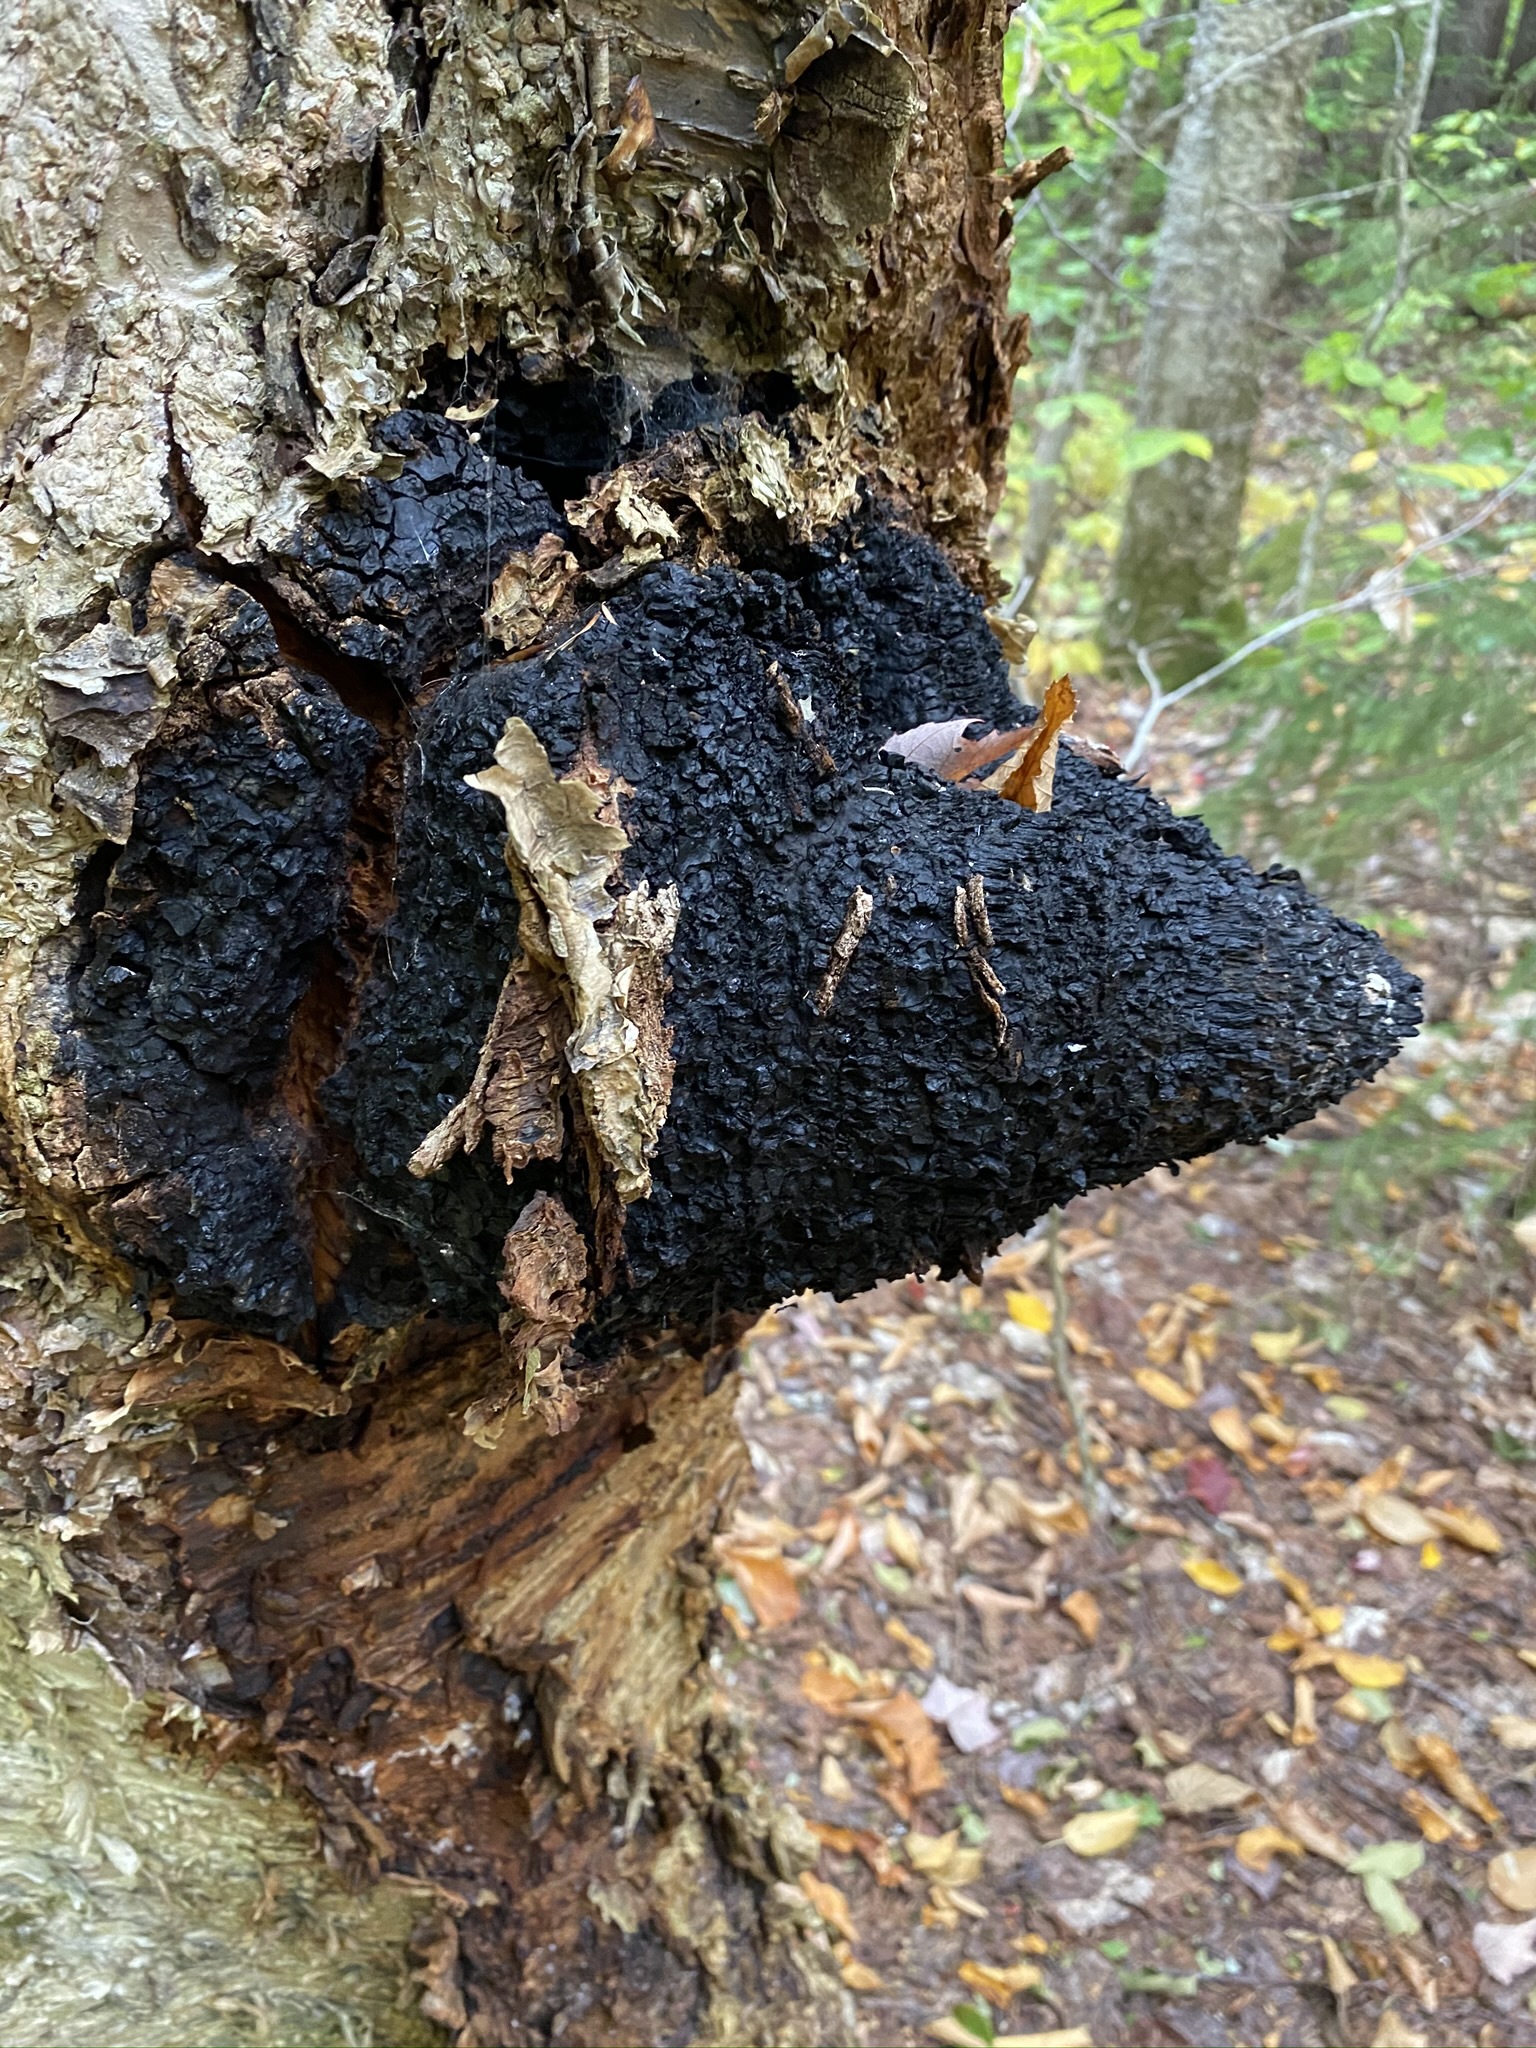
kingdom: Fungi
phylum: Basidiomycota
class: Agaricomycetes
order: Hymenochaetales
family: Hymenochaetaceae
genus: Inonotus
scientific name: Inonotus obliquus
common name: Chaga
